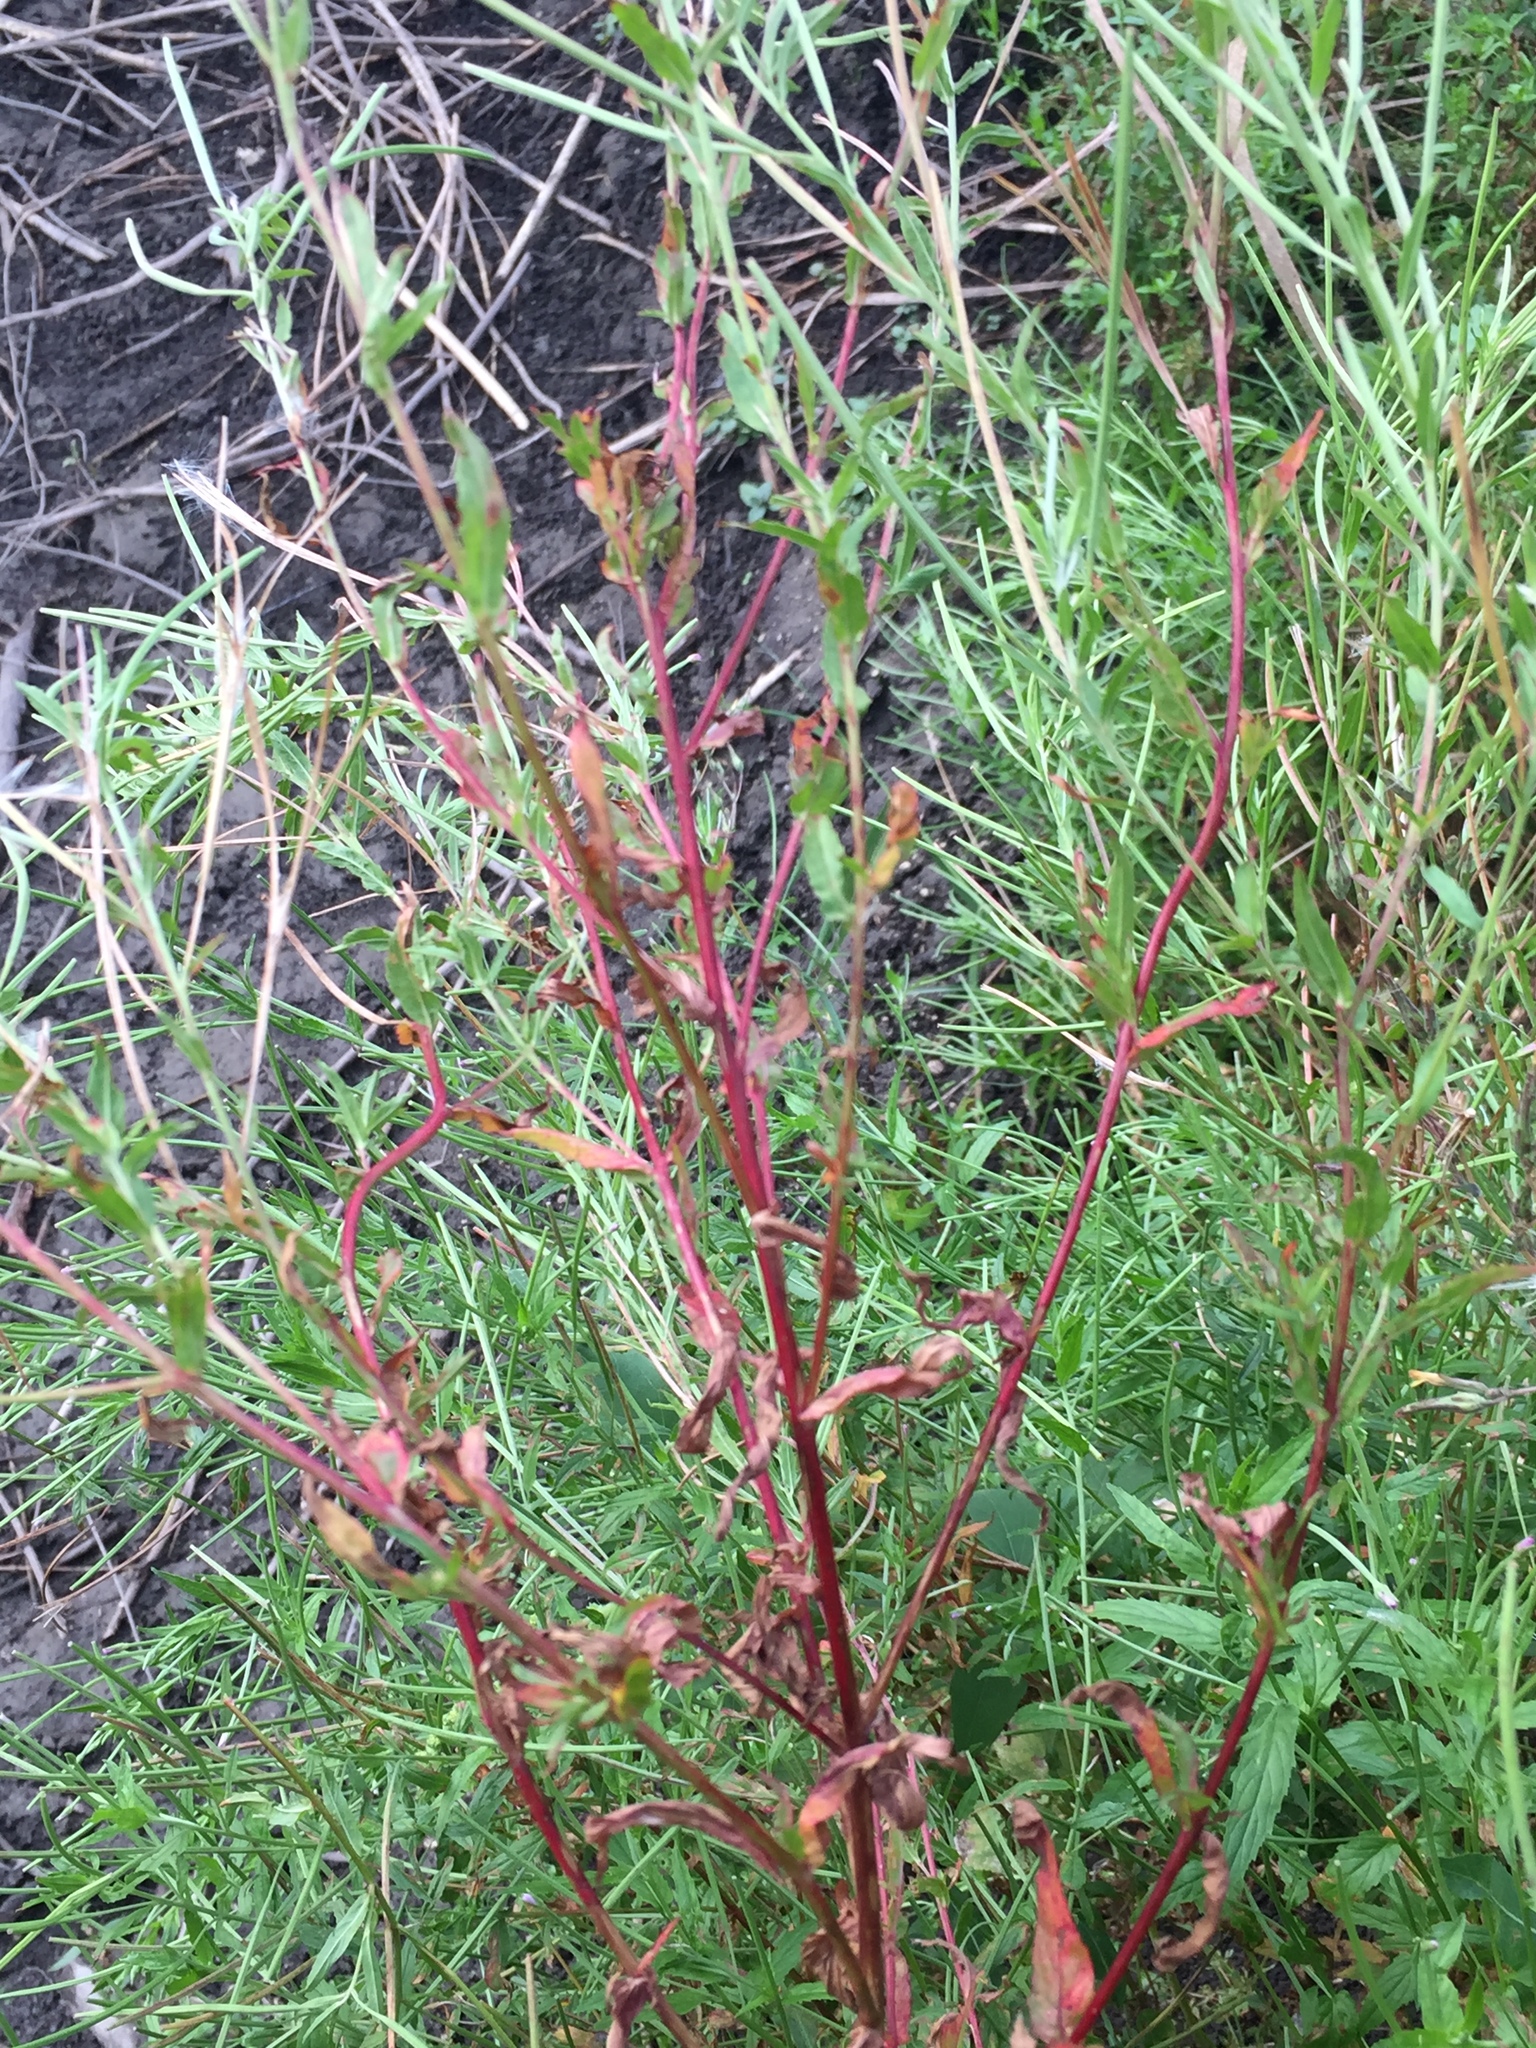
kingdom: Plantae
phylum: Tracheophyta
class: Magnoliopsida
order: Myrtales
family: Onagraceae
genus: Epilobium
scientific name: Epilobium tetragonum
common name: Square-stemmed willowherb
